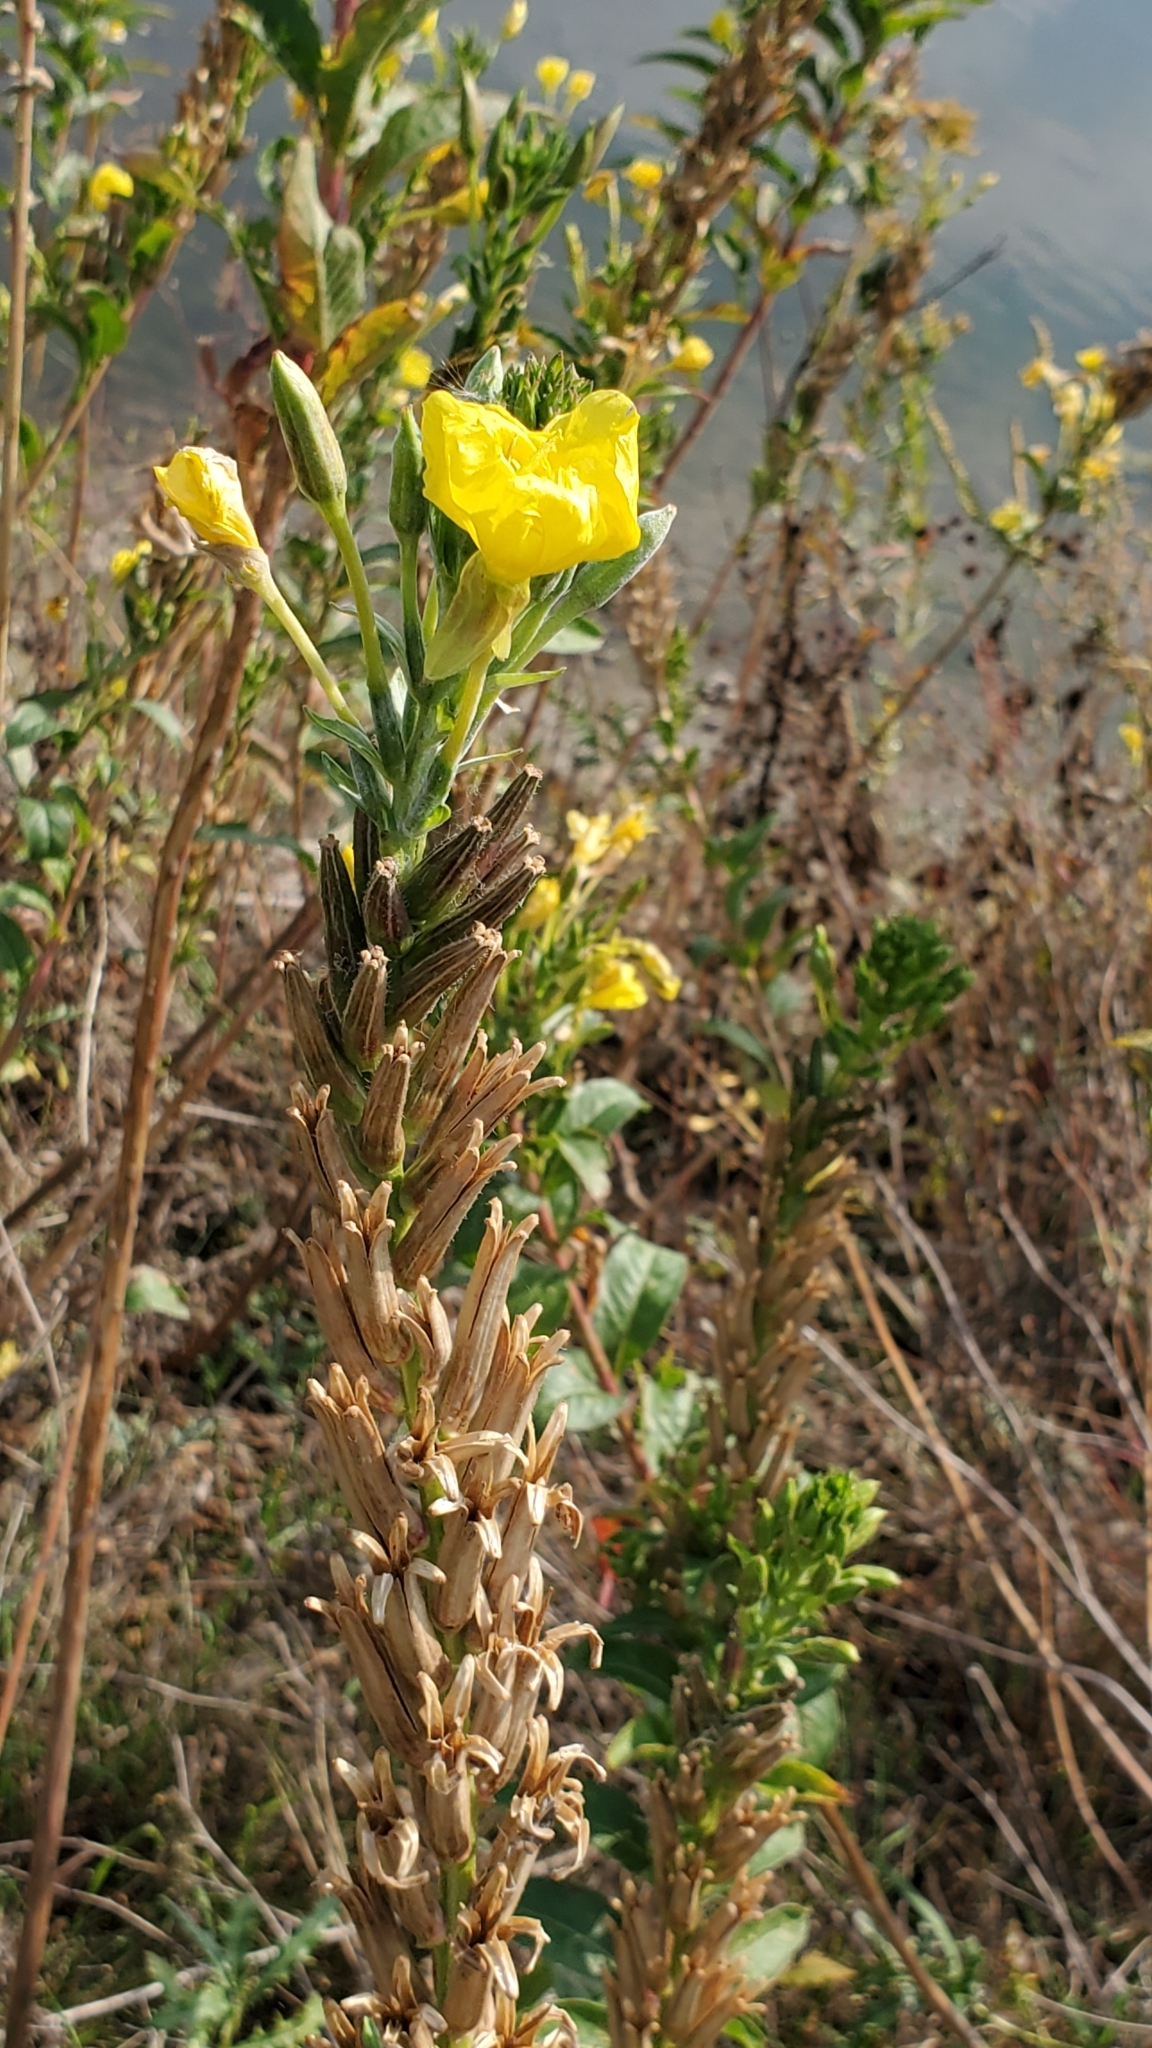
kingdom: Plantae
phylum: Tracheophyta
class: Magnoliopsida
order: Myrtales
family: Onagraceae
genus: Oenothera
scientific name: Oenothera biennis
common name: Common evening-primrose
